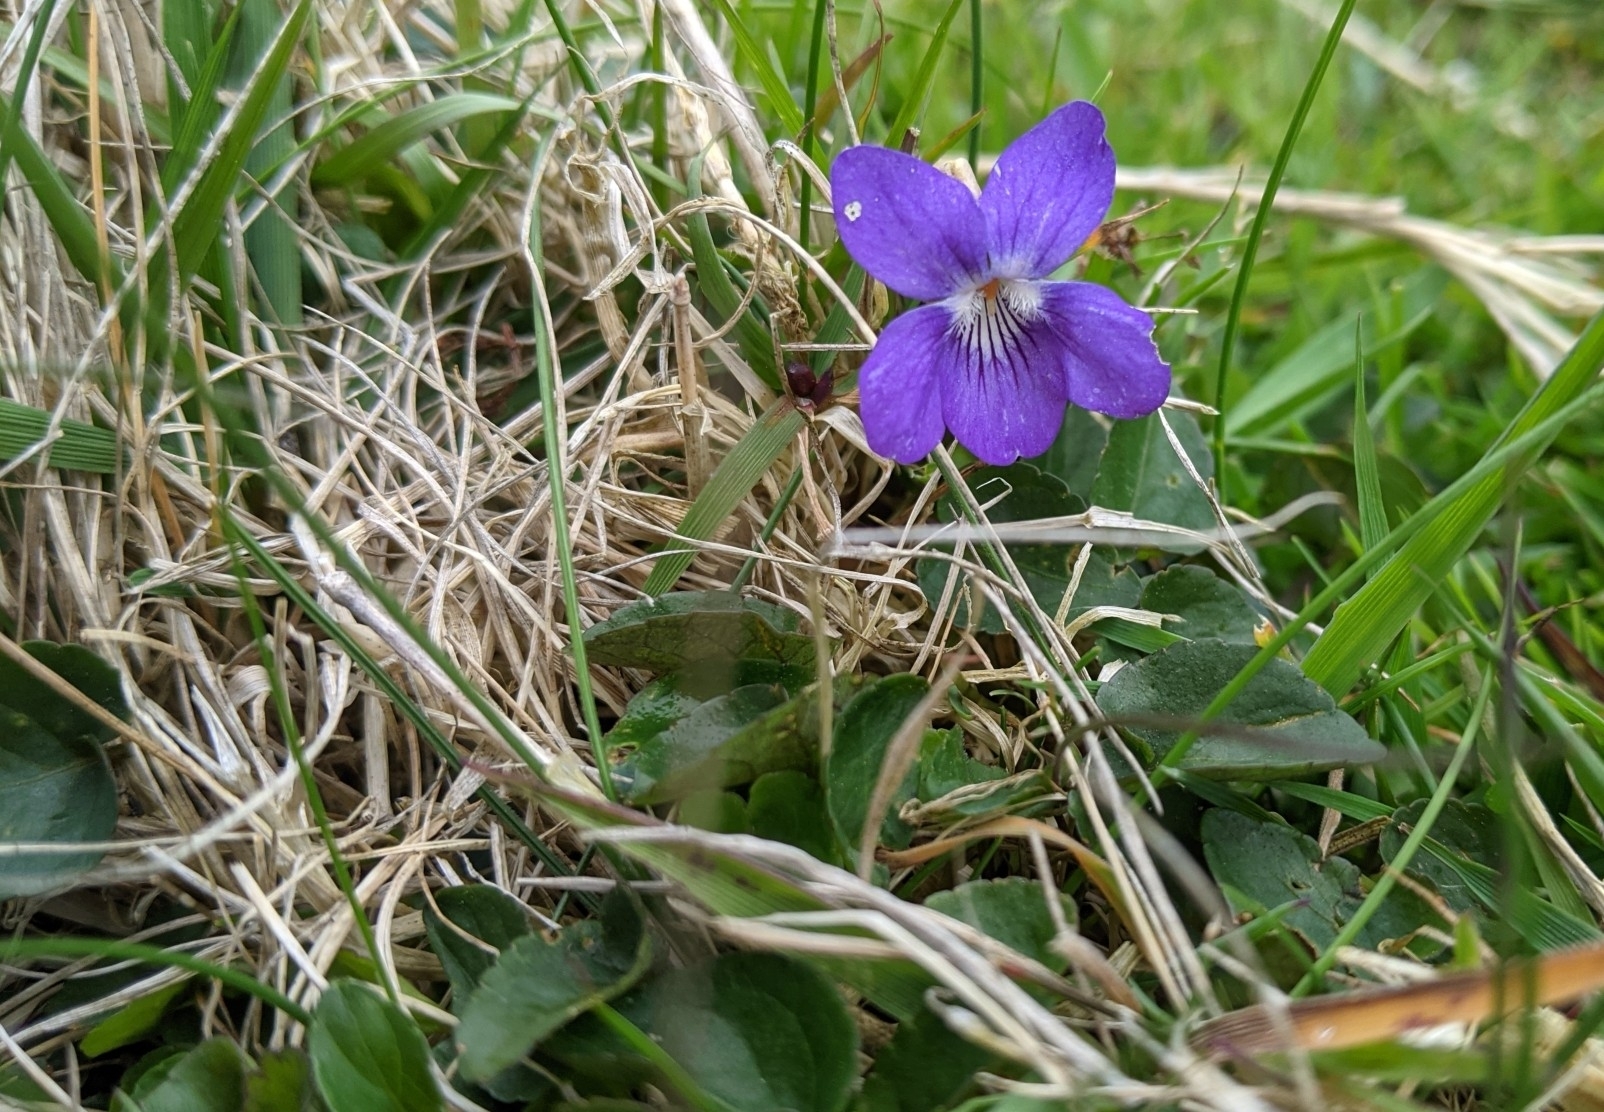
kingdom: Plantae
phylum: Tracheophyta
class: Magnoliopsida
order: Malpighiales
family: Violaceae
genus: Viola
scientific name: Viola riviniana
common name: Common dog-violet
